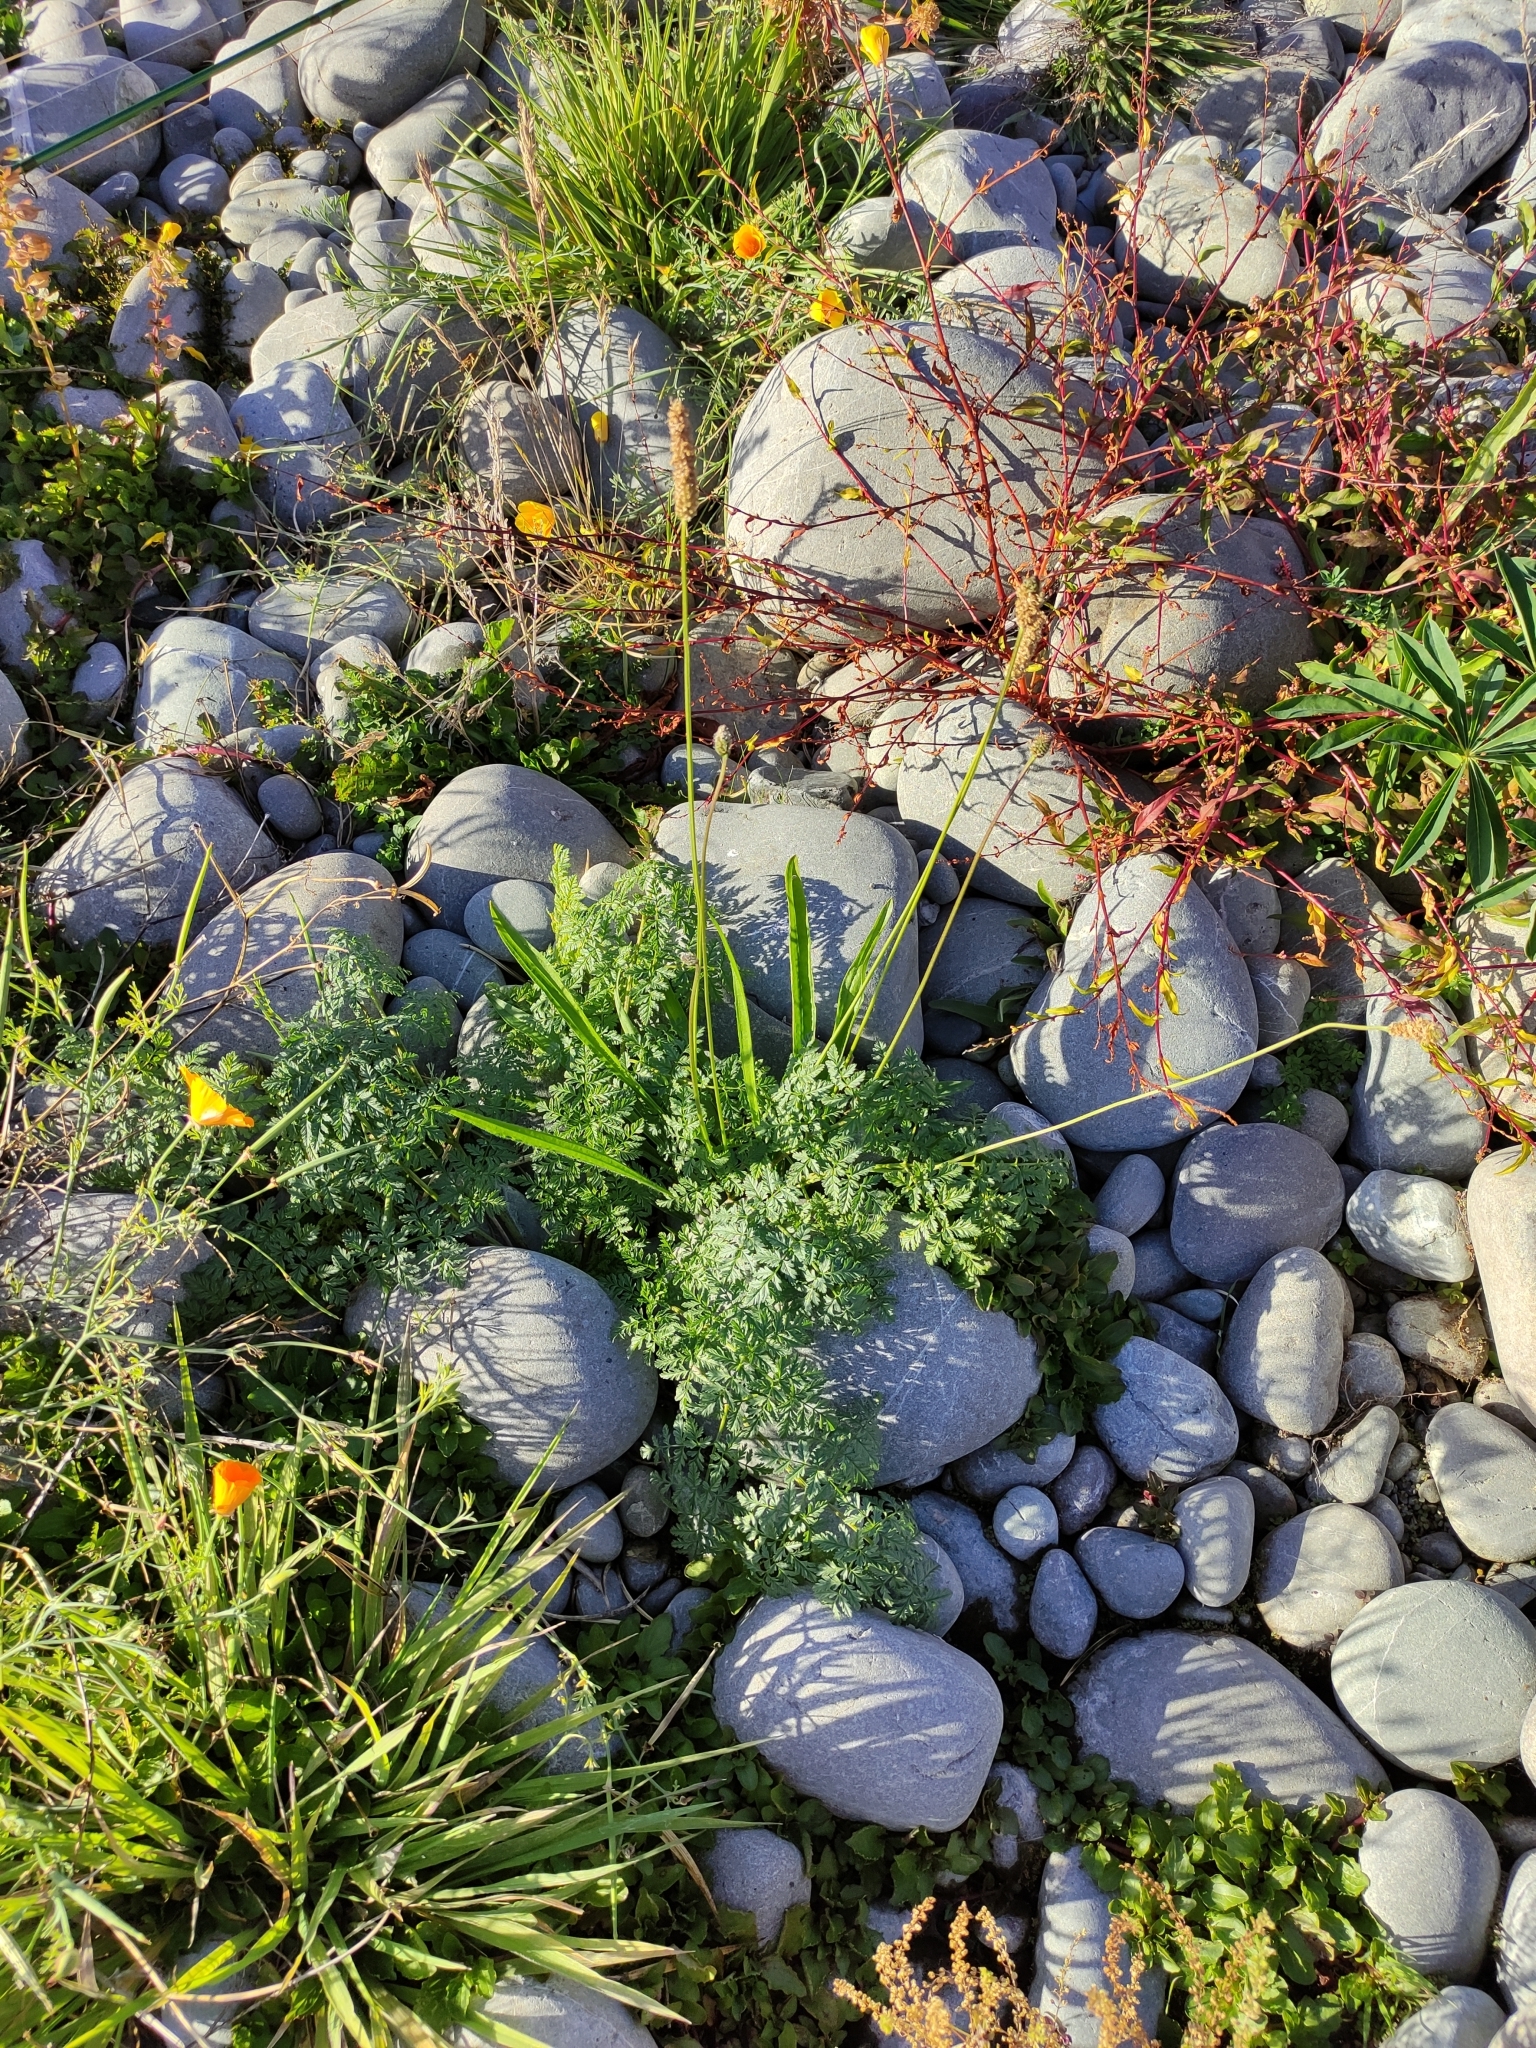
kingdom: Plantae
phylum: Tracheophyta
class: Magnoliopsida
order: Apiales
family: Apiaceae
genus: Conium
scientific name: Conium maculatum
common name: Hemlock
